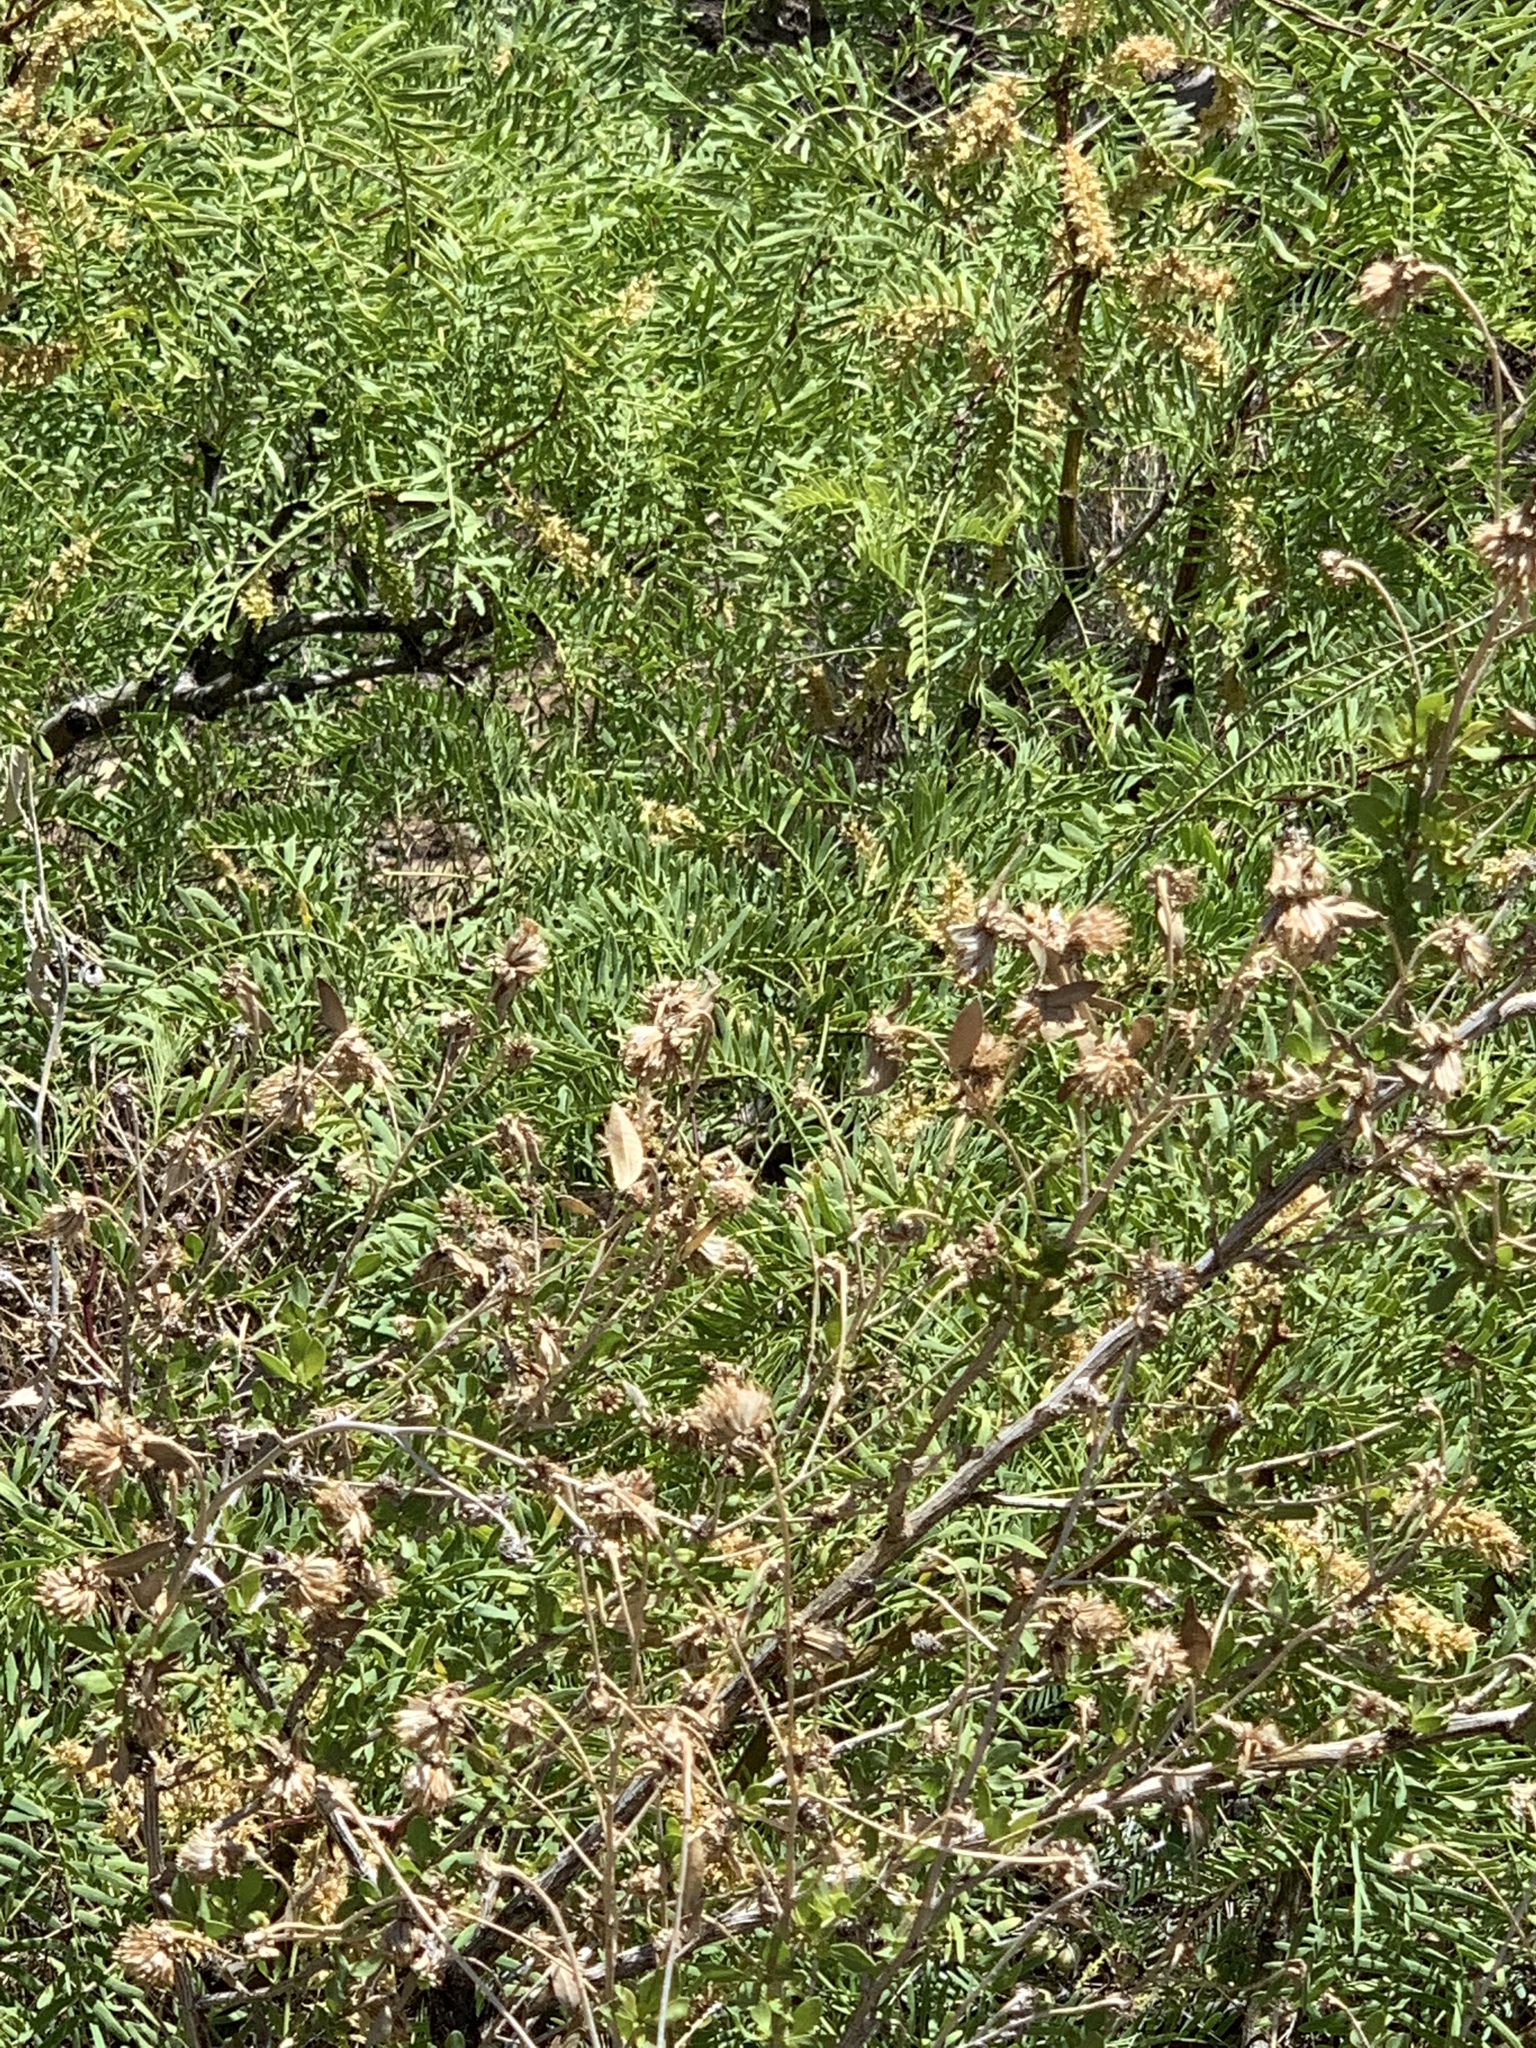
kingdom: Plantae
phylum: Tracheophyta
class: Magnoliopsida
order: Fabales
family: Fabaceae
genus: Prosopis
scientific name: Prosopis glandulosa
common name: Honey mesquite
